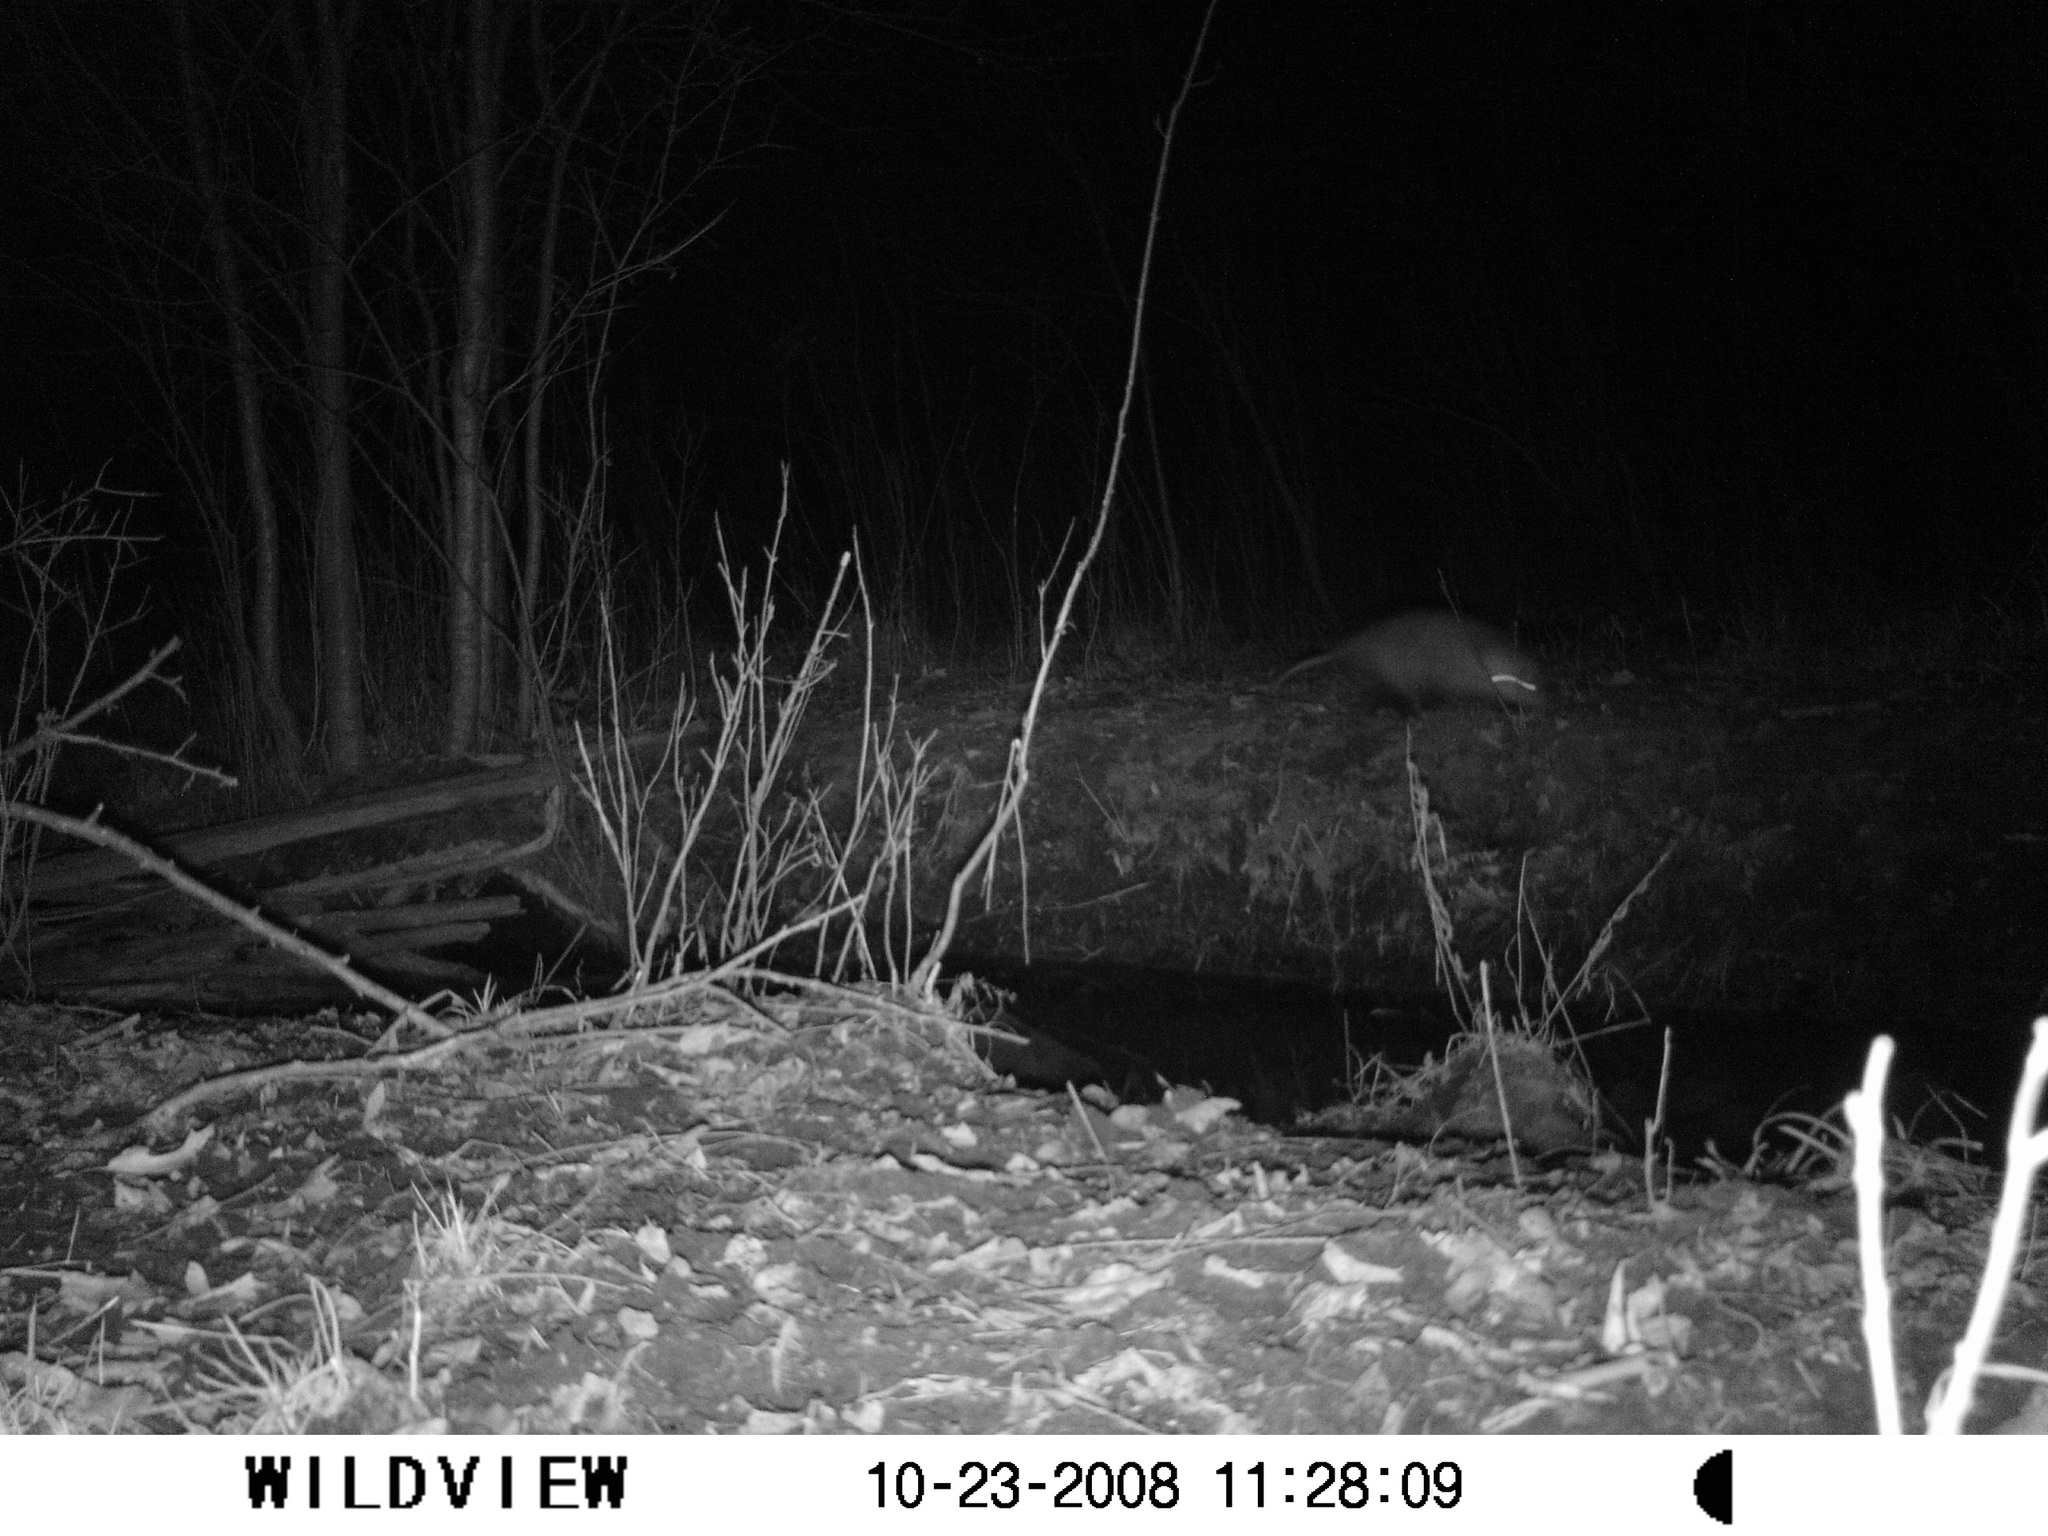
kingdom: Animalia
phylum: Chordata
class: Mammalia
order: Didelphimorphia
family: Didelphidae
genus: Didelphis
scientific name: Didelphis virginiana
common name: Virginia opossum
